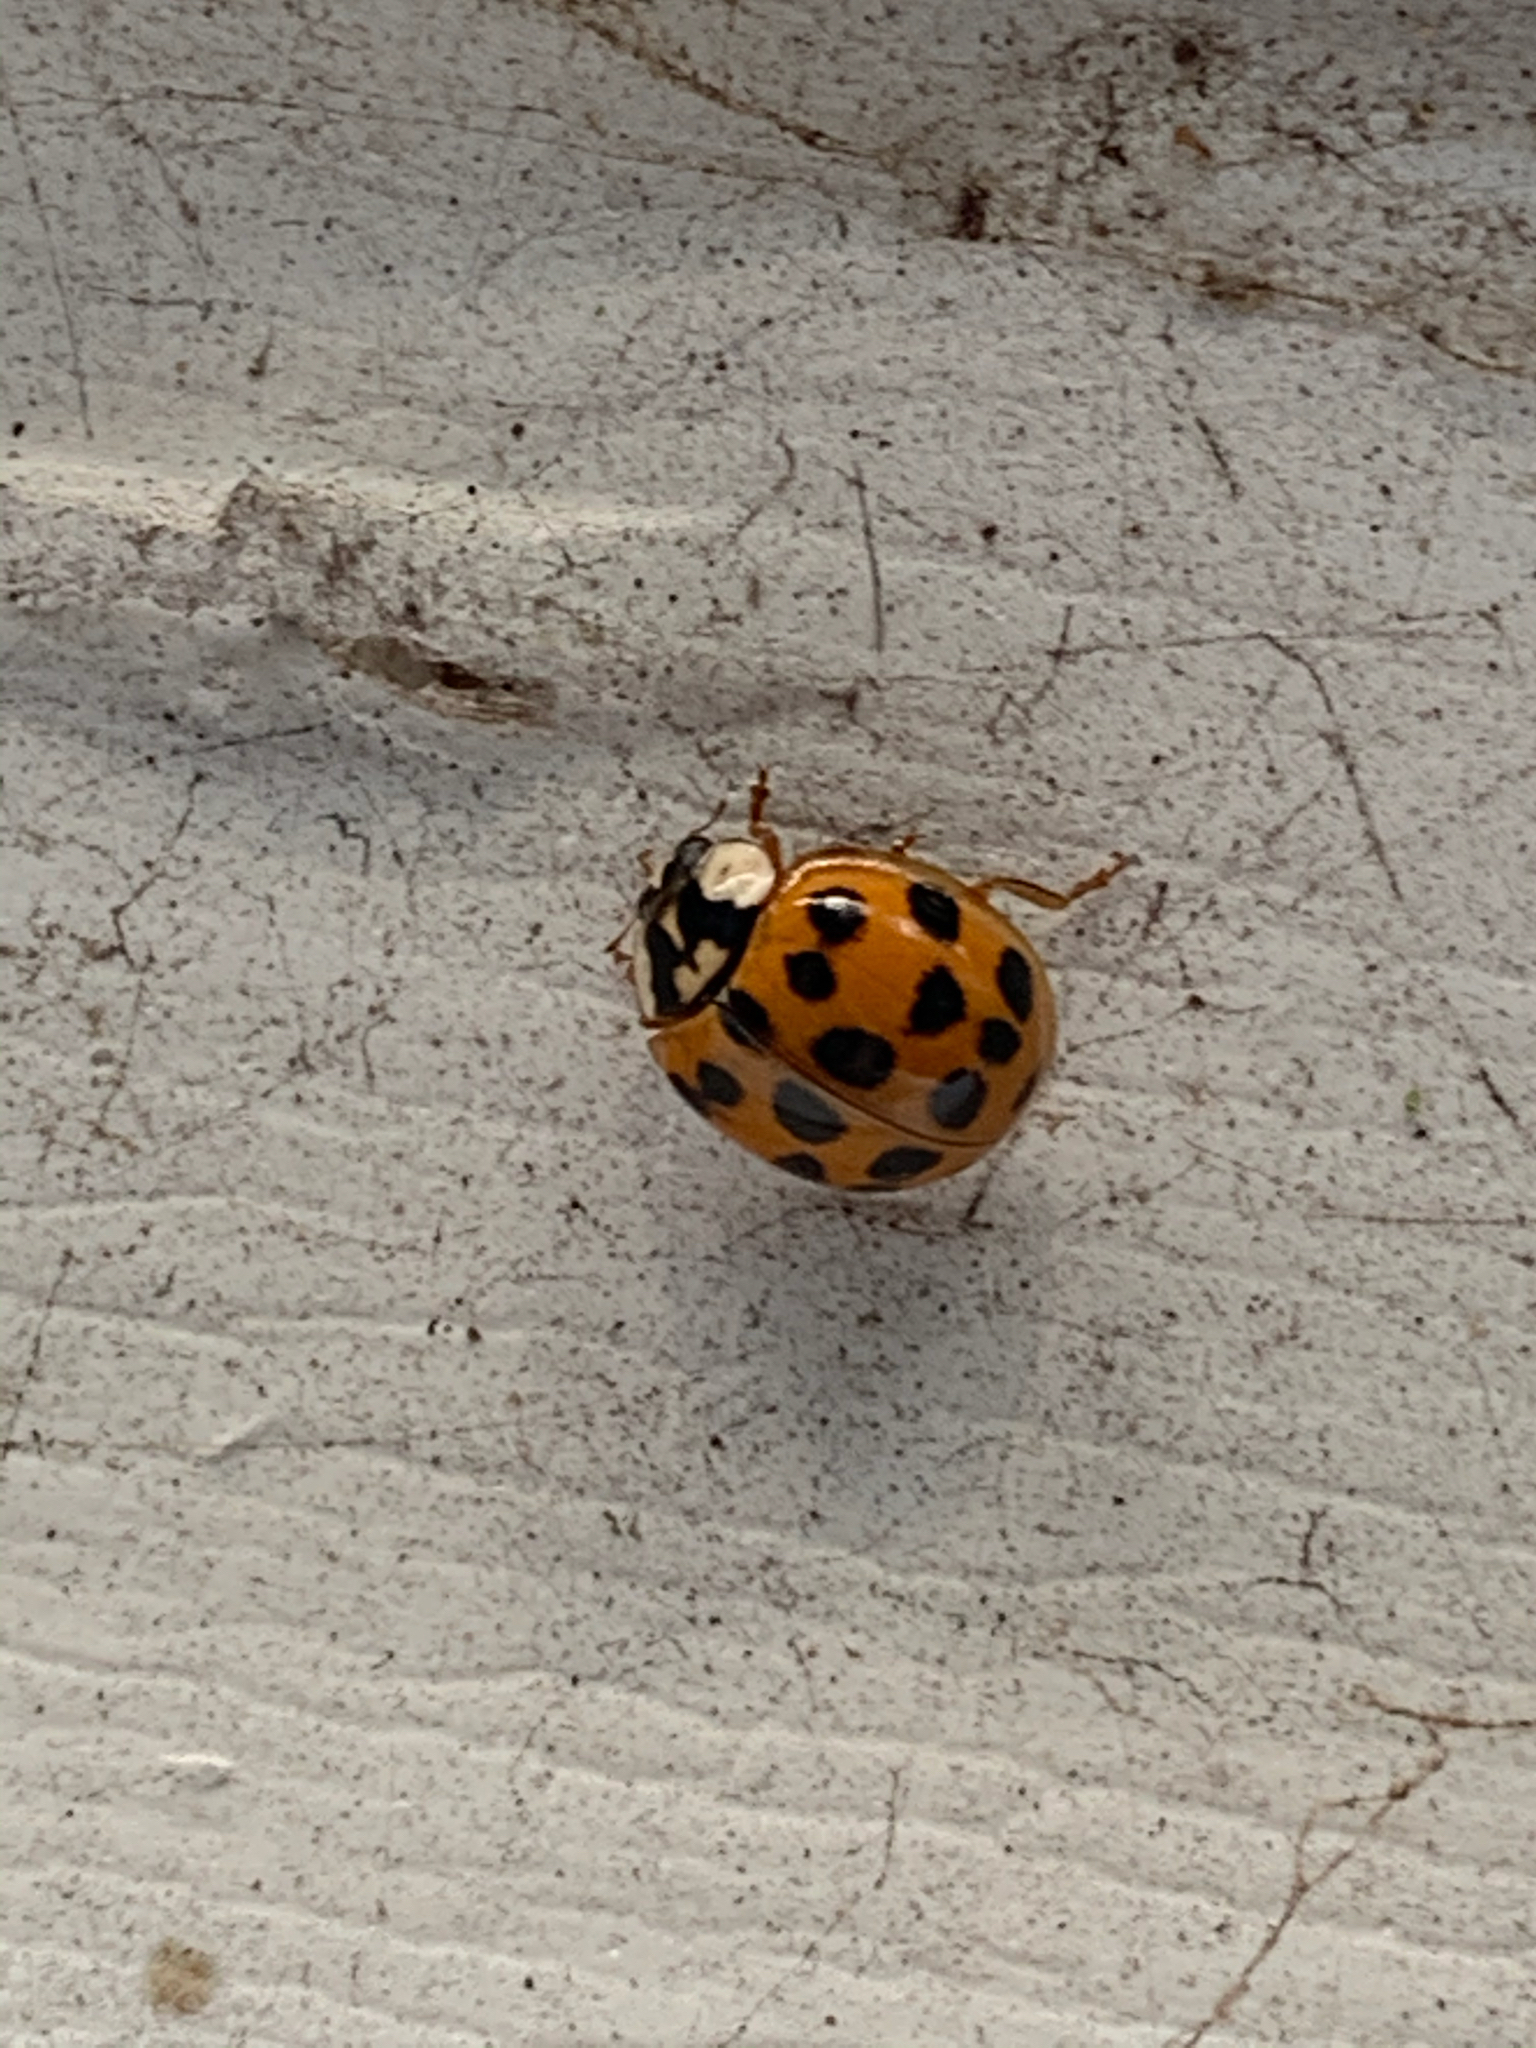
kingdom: Animalia
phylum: Arthropoda
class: Insecta
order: Coleoptera
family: Coccinellidae
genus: Harmonia
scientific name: Harmonia axyridis
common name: Harlequin ladybird
